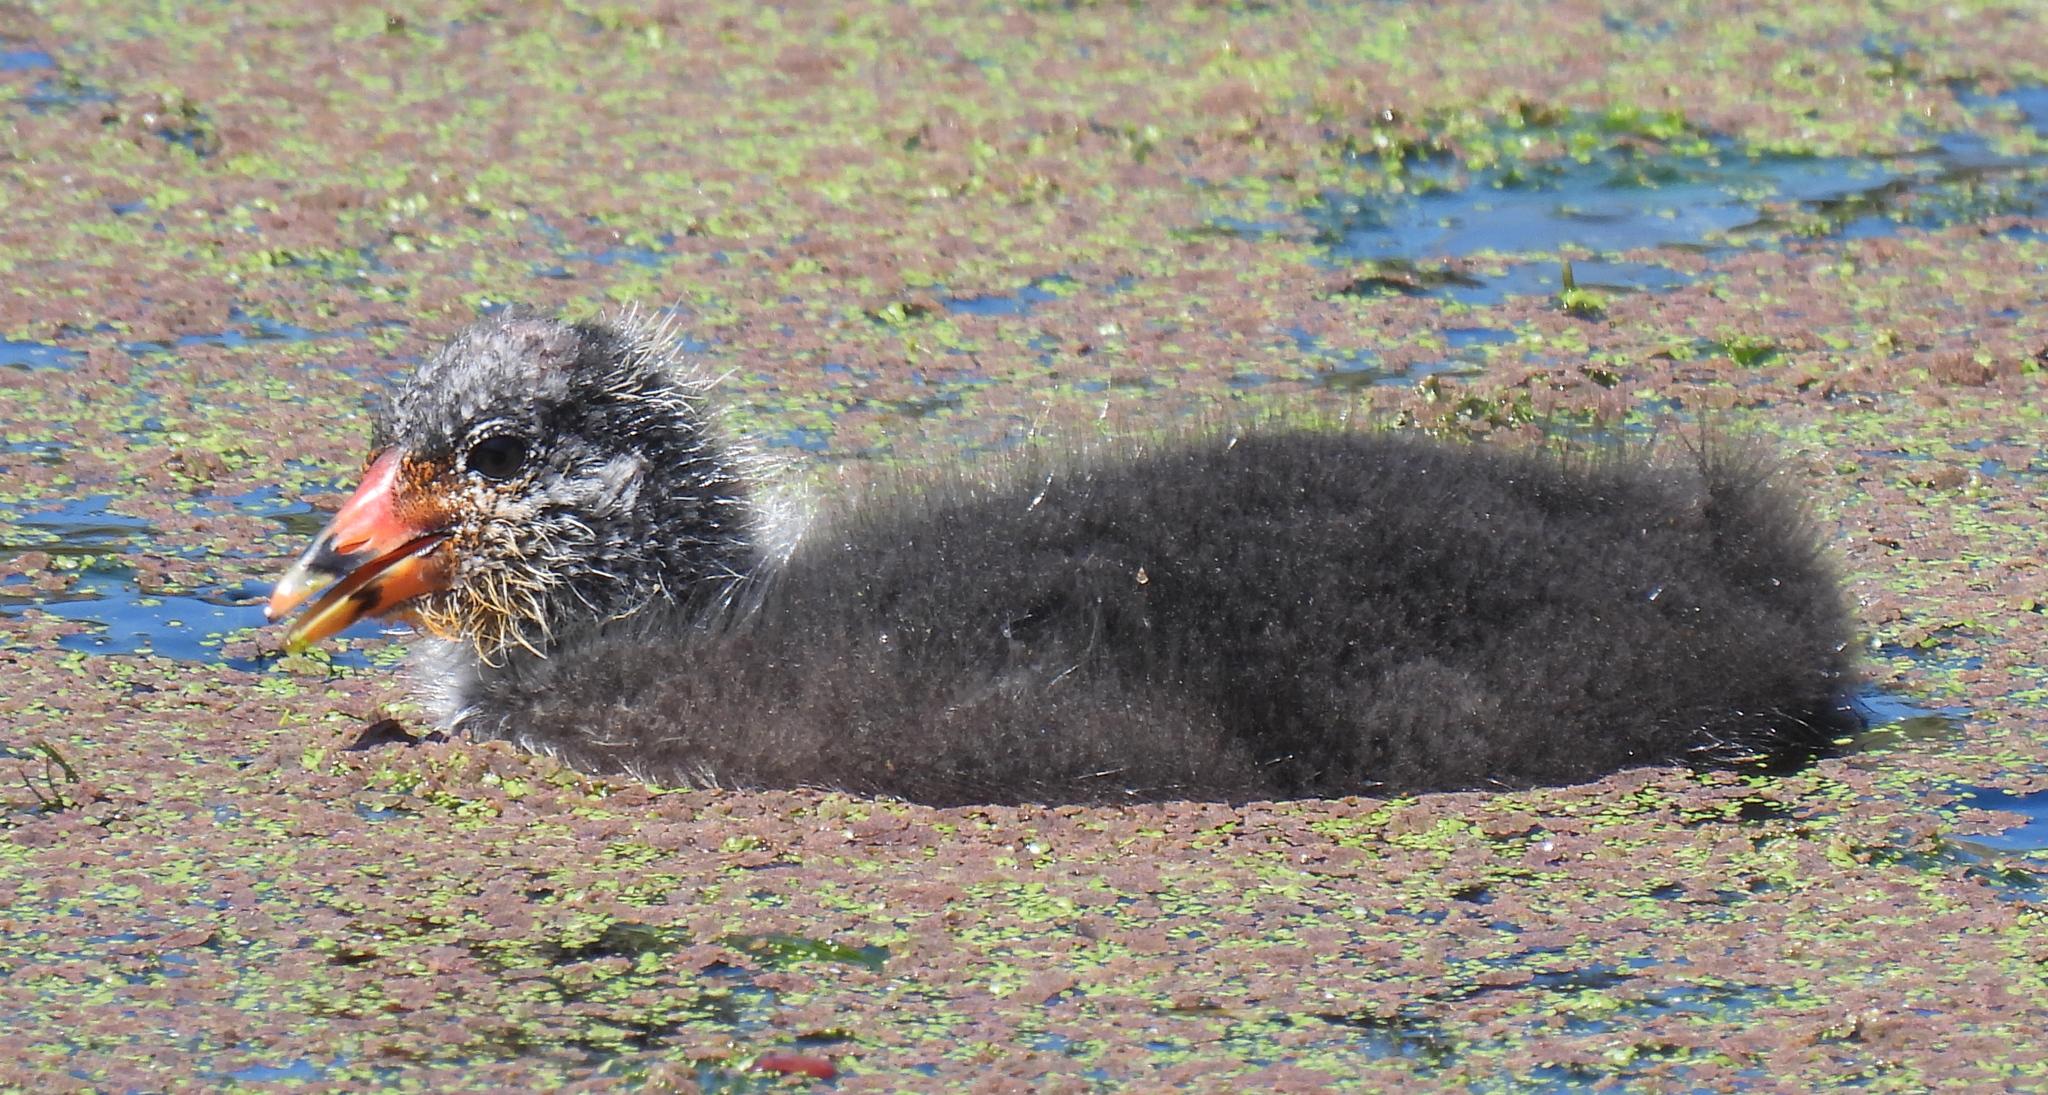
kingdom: Animalia
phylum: Chordata
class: Aves
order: Gruiformes
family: Rallidae
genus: Gallinula
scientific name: Gallinula chloropus
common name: Common moorhen
